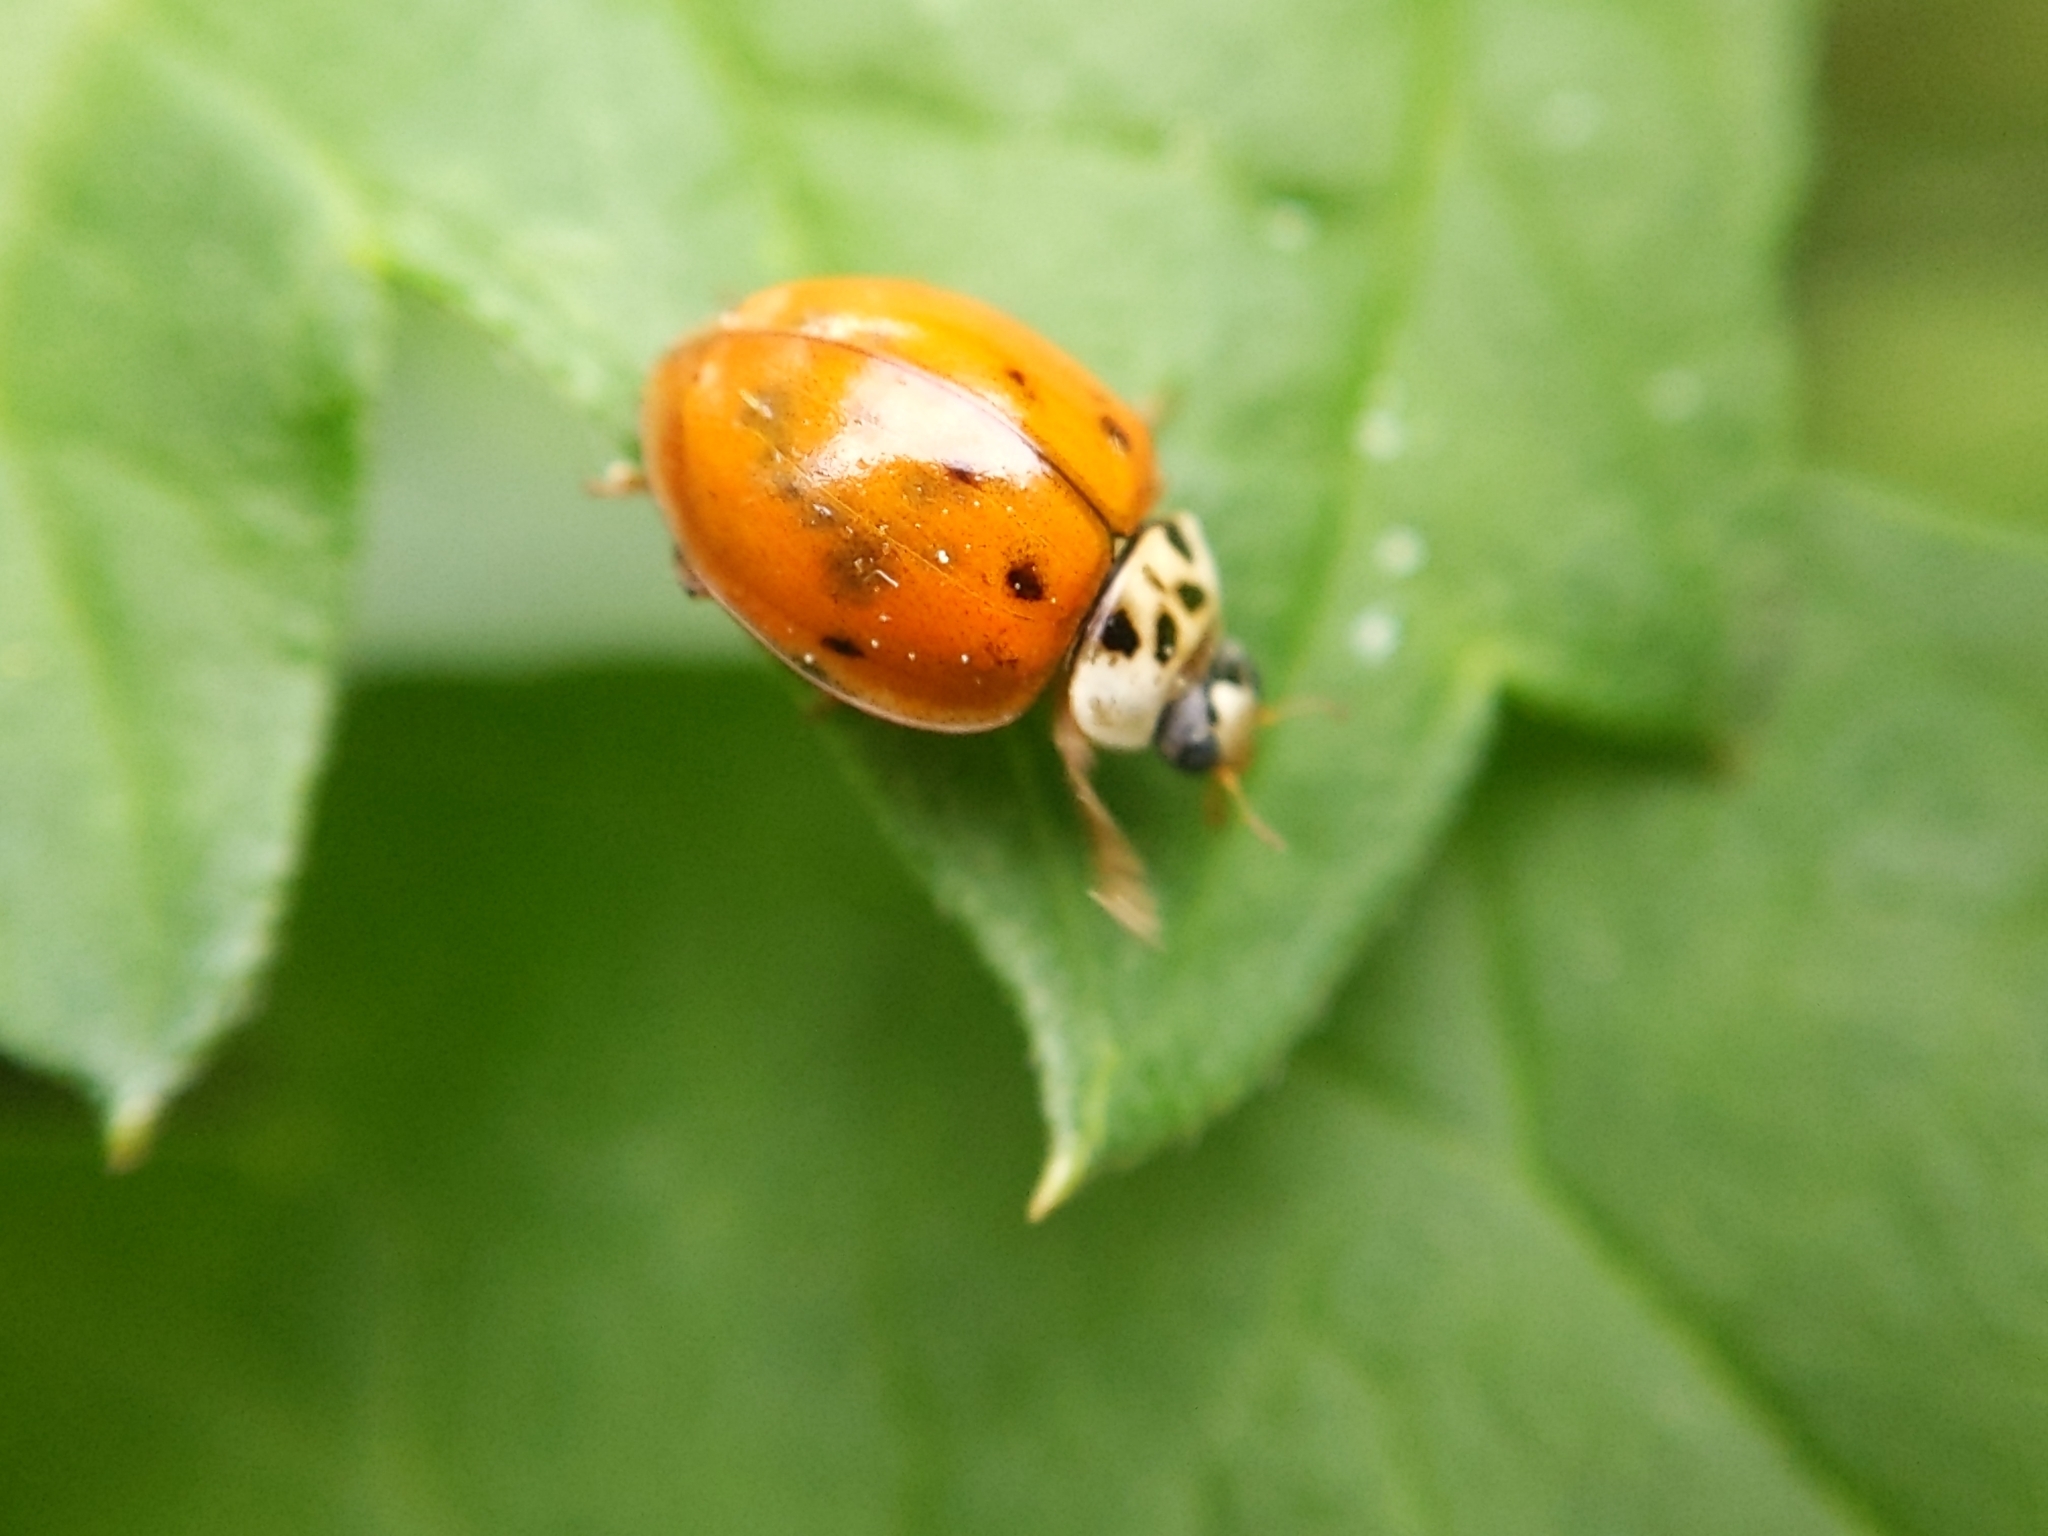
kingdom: Animalia
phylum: Arthropoda
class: Insecta
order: Coleoptera
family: Coccinellidae
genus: Harmonia
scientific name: Harmonia axyridis
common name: Harlequin ladybird
